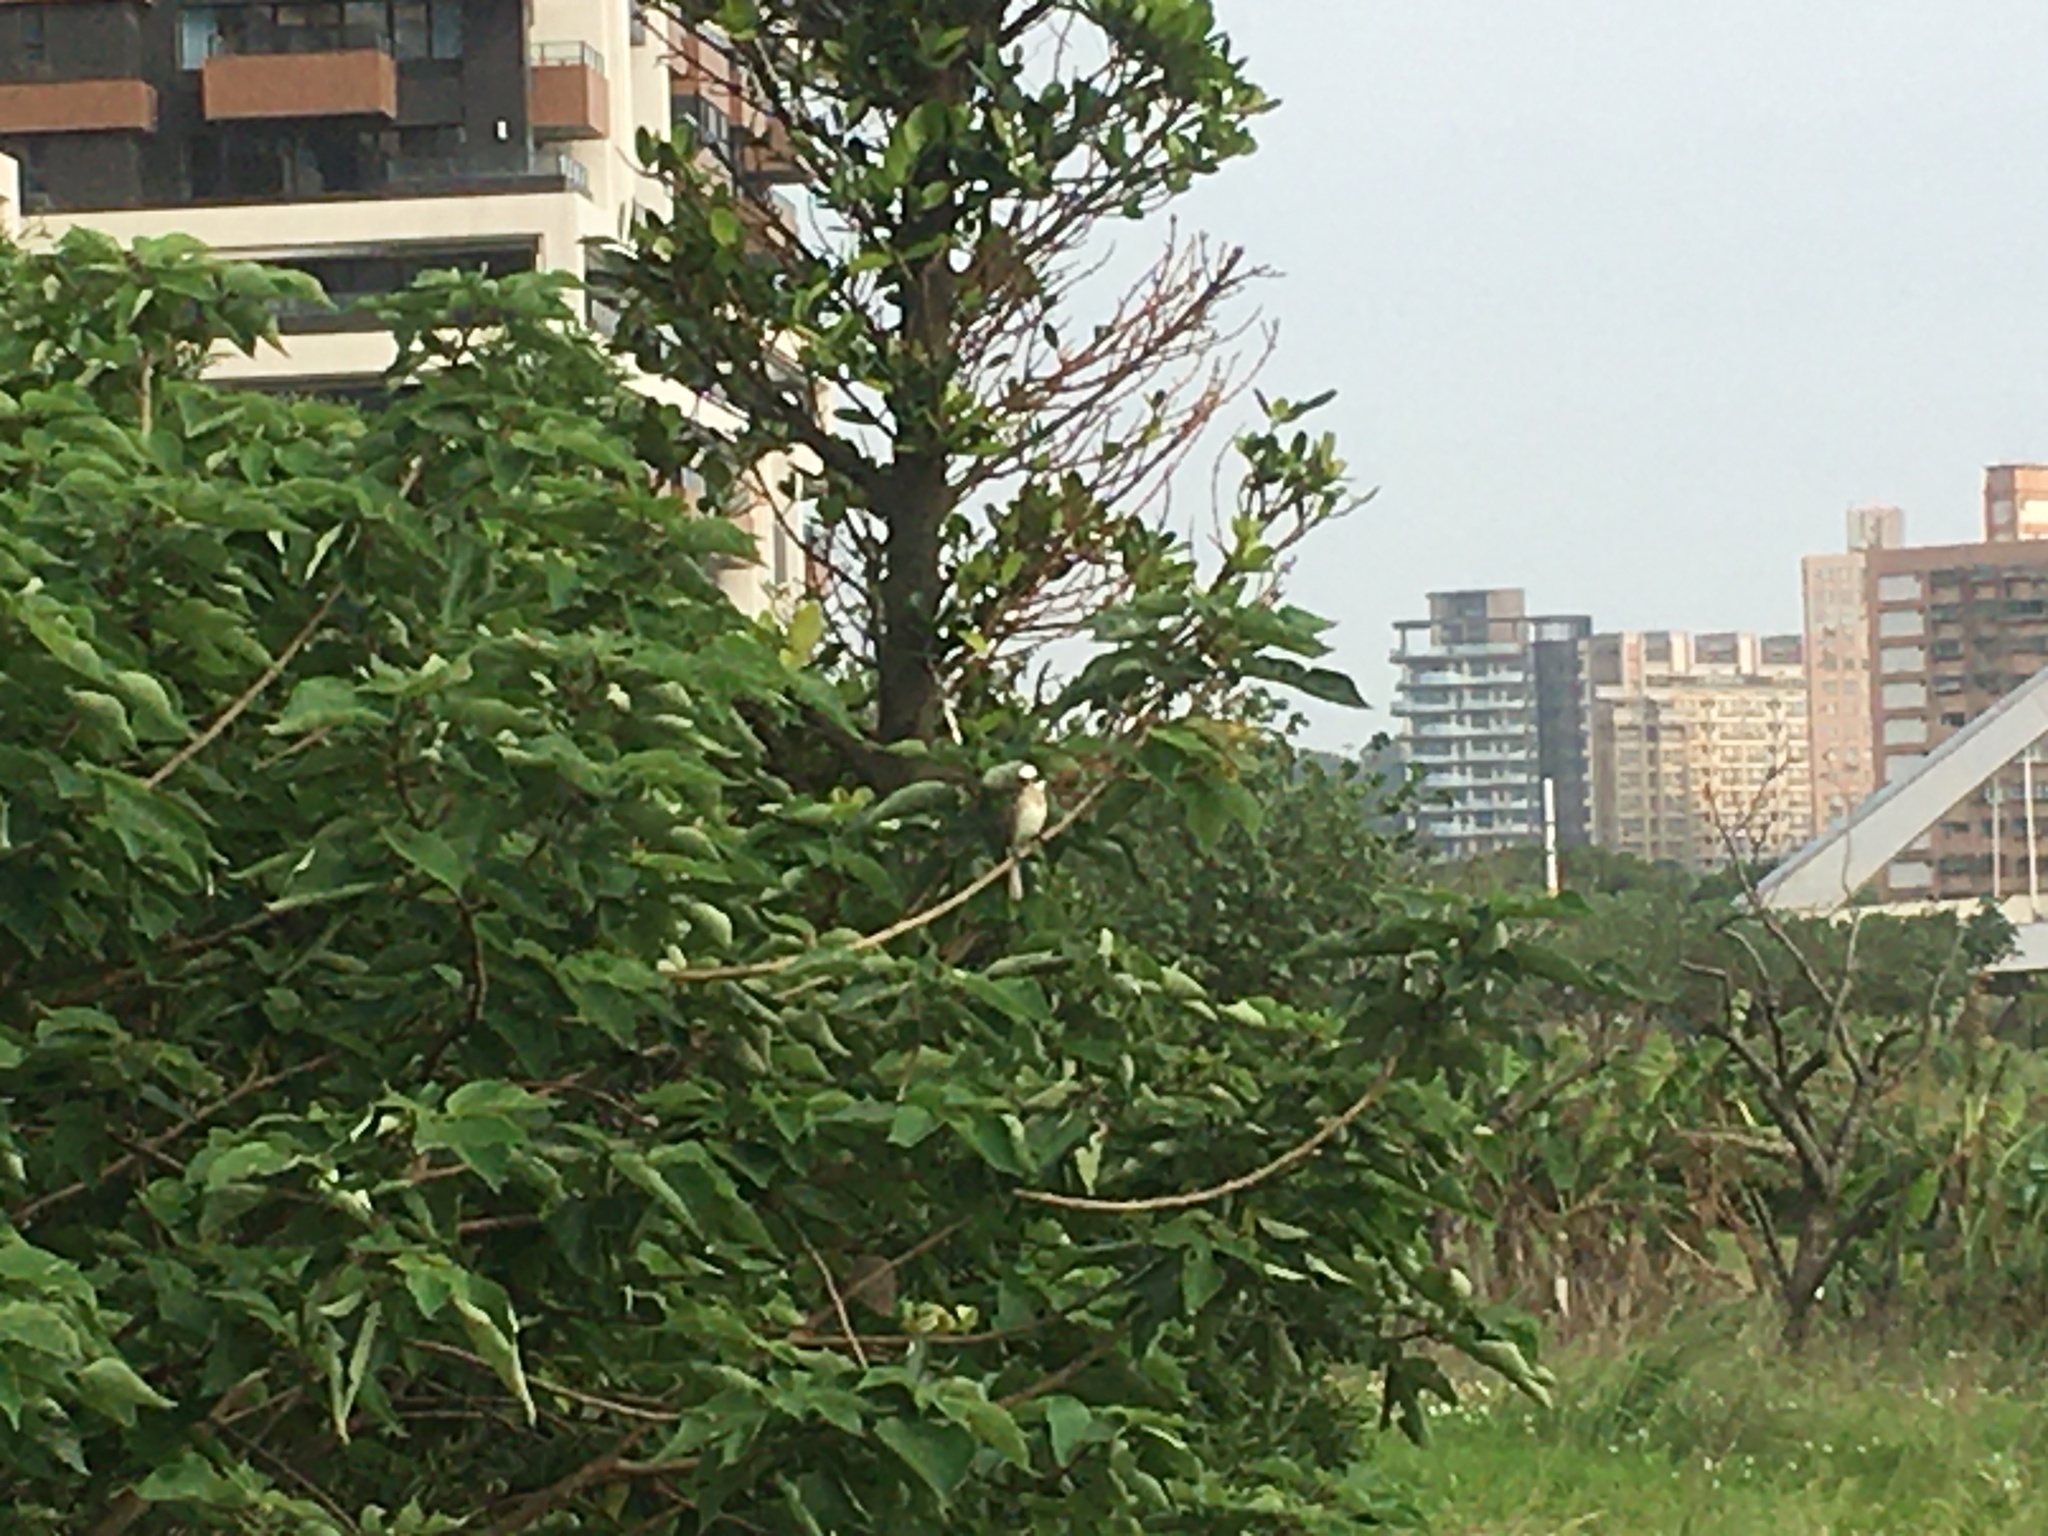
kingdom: Animalia
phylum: Chordata
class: Aves
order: Passeriformes
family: Pycnonotidae
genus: Pycnonotus
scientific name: Pycnonotus sinensis
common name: Light-vented bulbul
